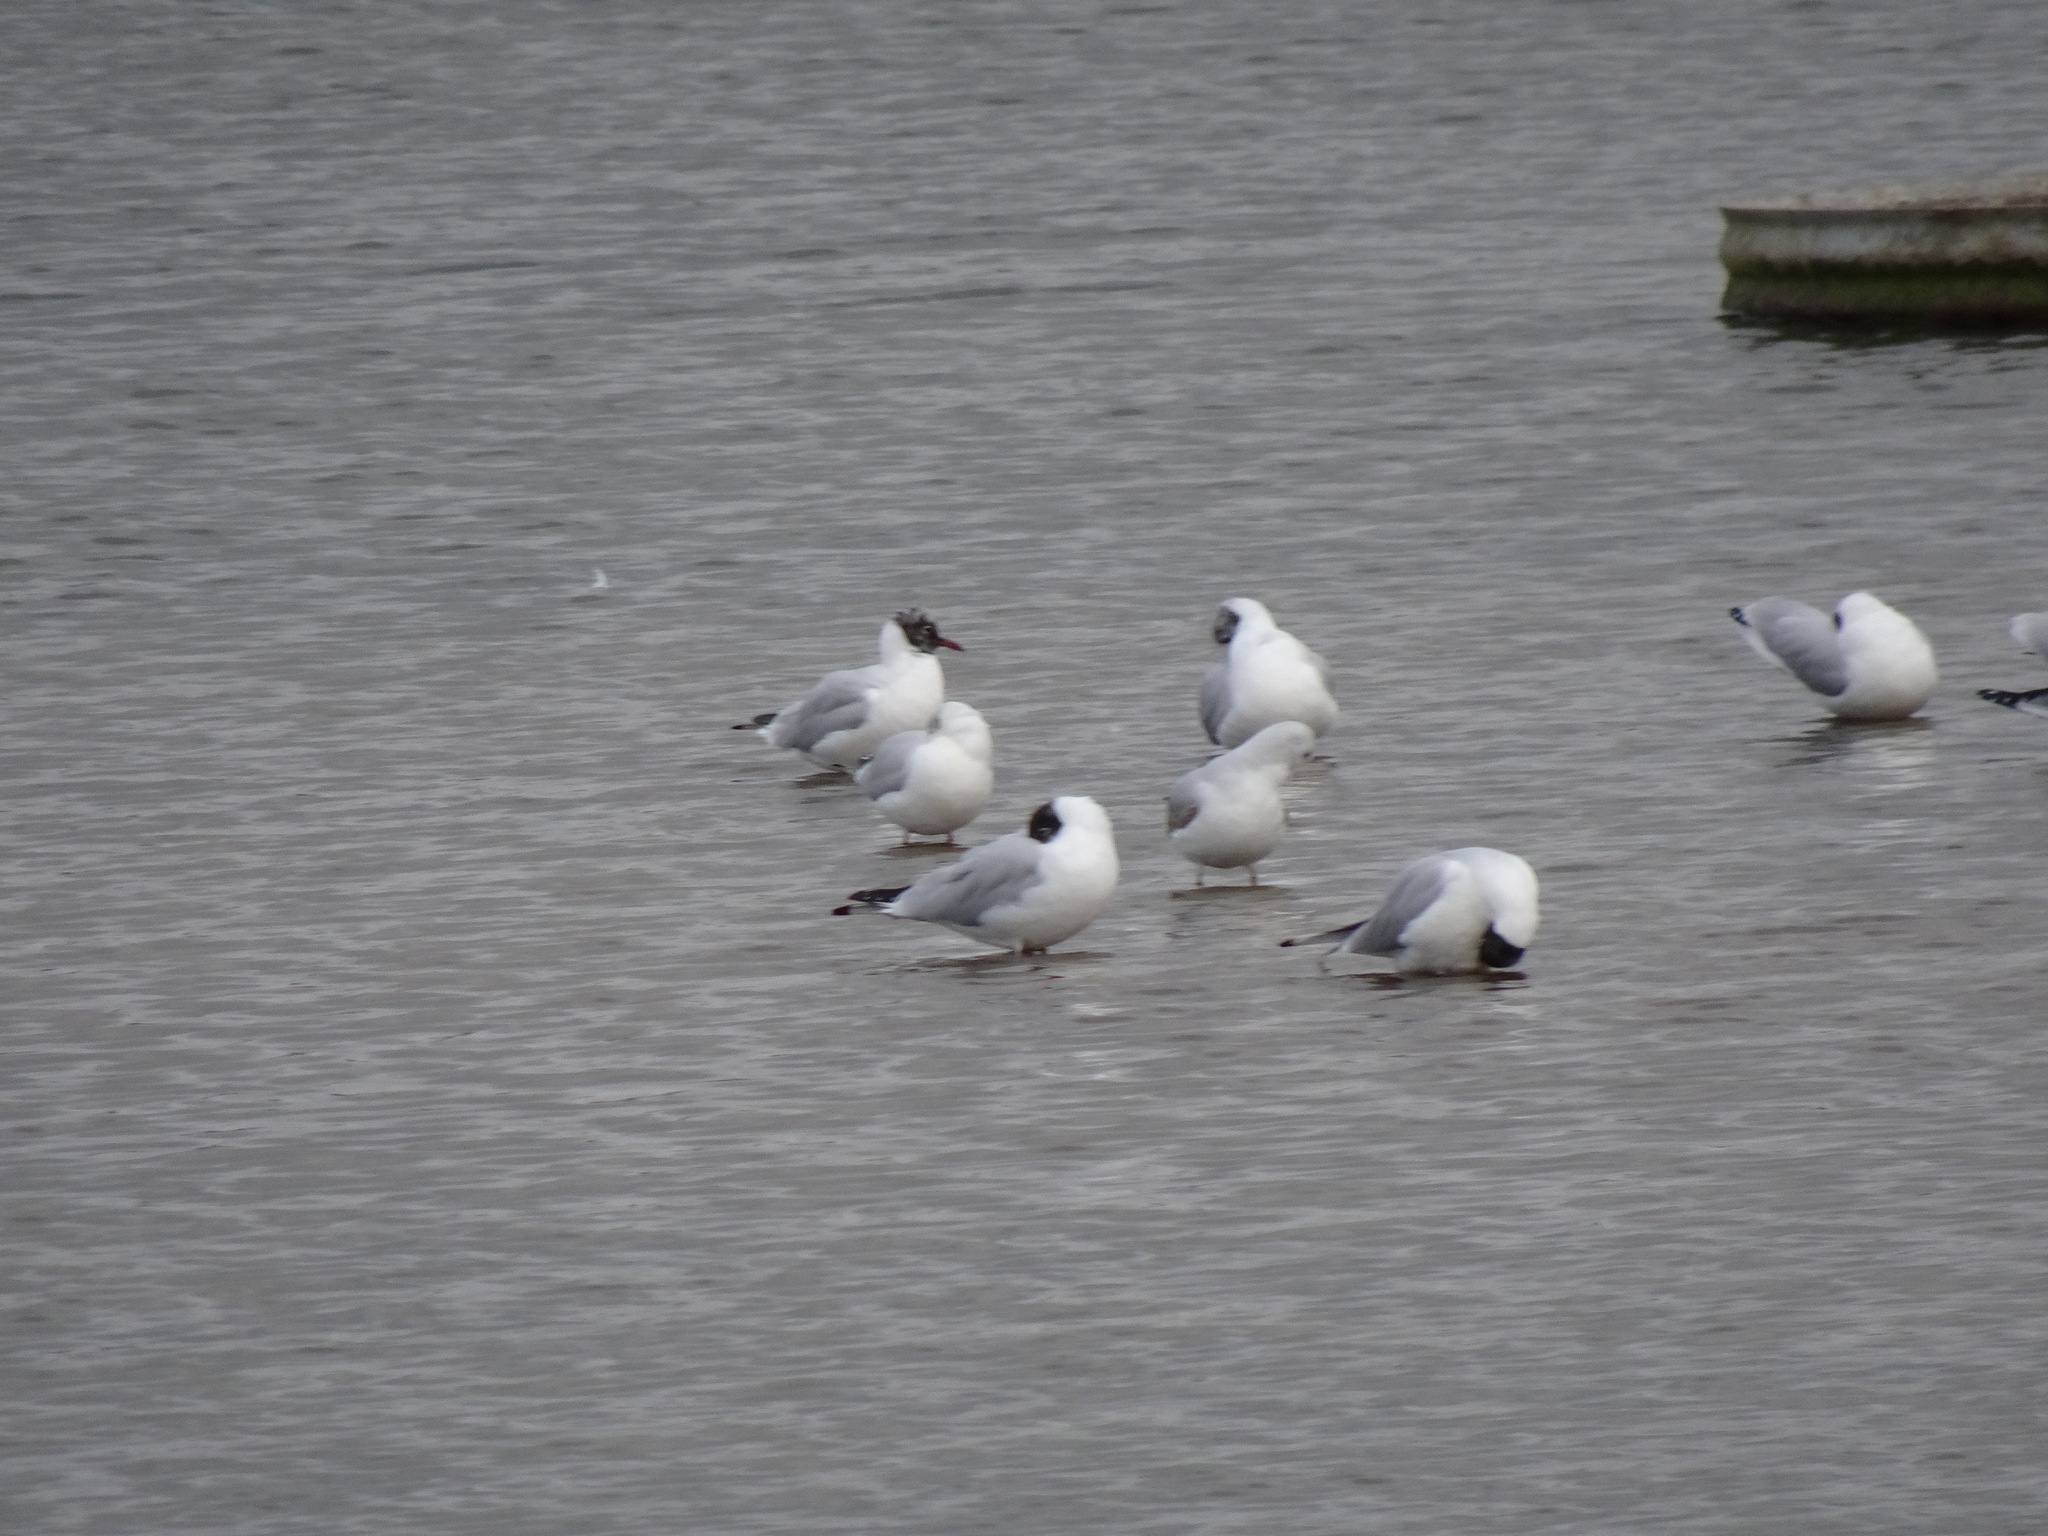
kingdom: Animalia
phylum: Chordata
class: Aves
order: Charadriiformes
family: Laridae
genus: Chroicocephalus
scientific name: Chroicocephalus ridibundus
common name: Black-headed gull
